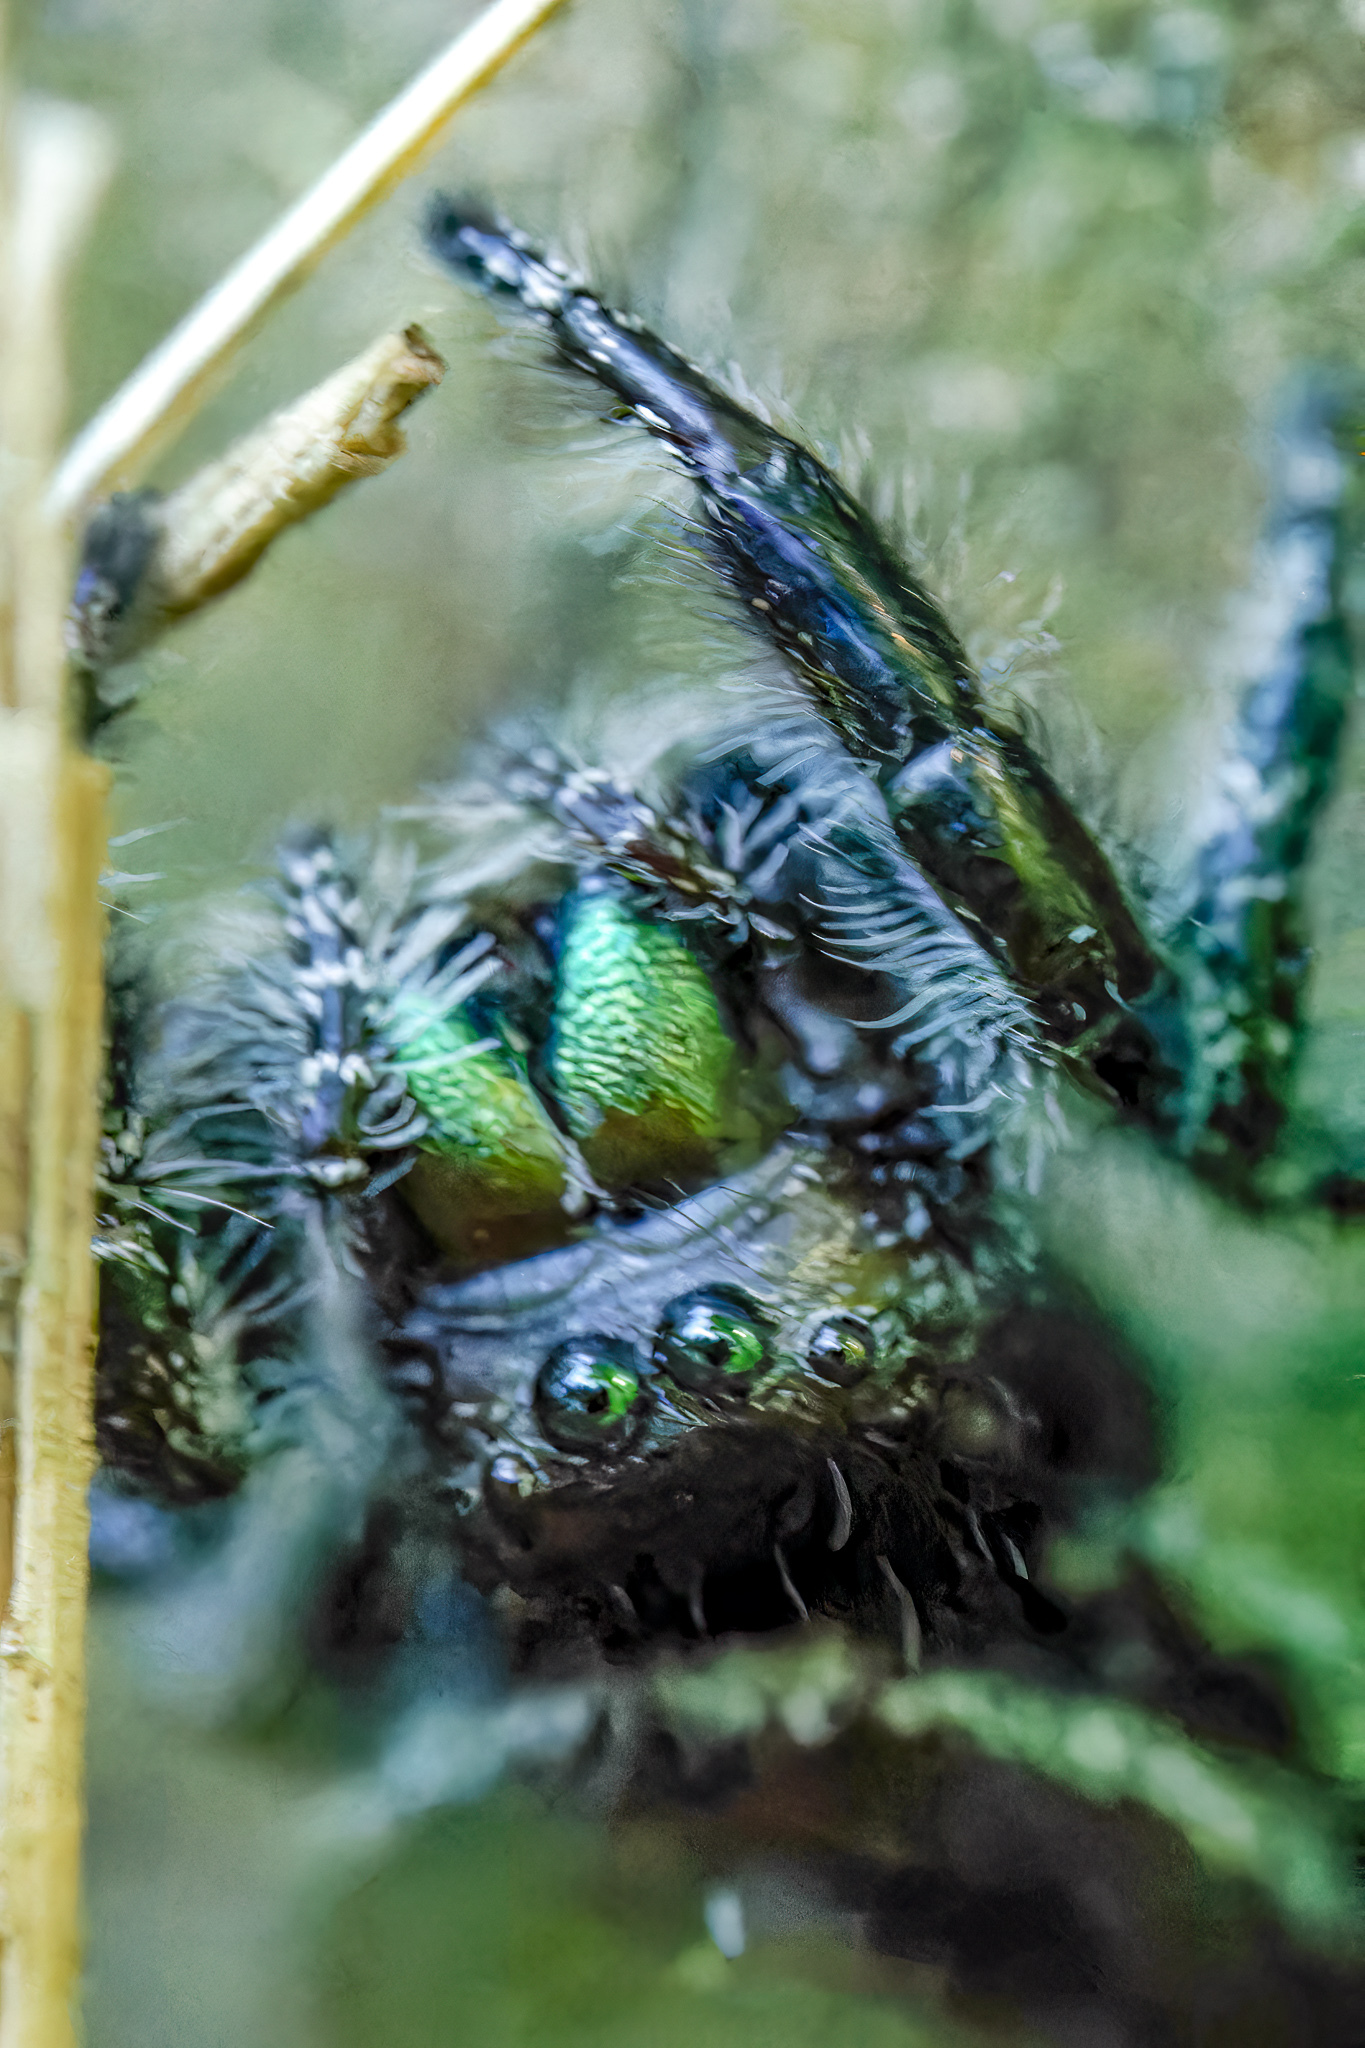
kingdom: Animalia
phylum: Arthropoda
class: Arachnida
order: Araneae
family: Salticidae
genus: Phidippus
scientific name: Phidippus audax
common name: Bold jumper
